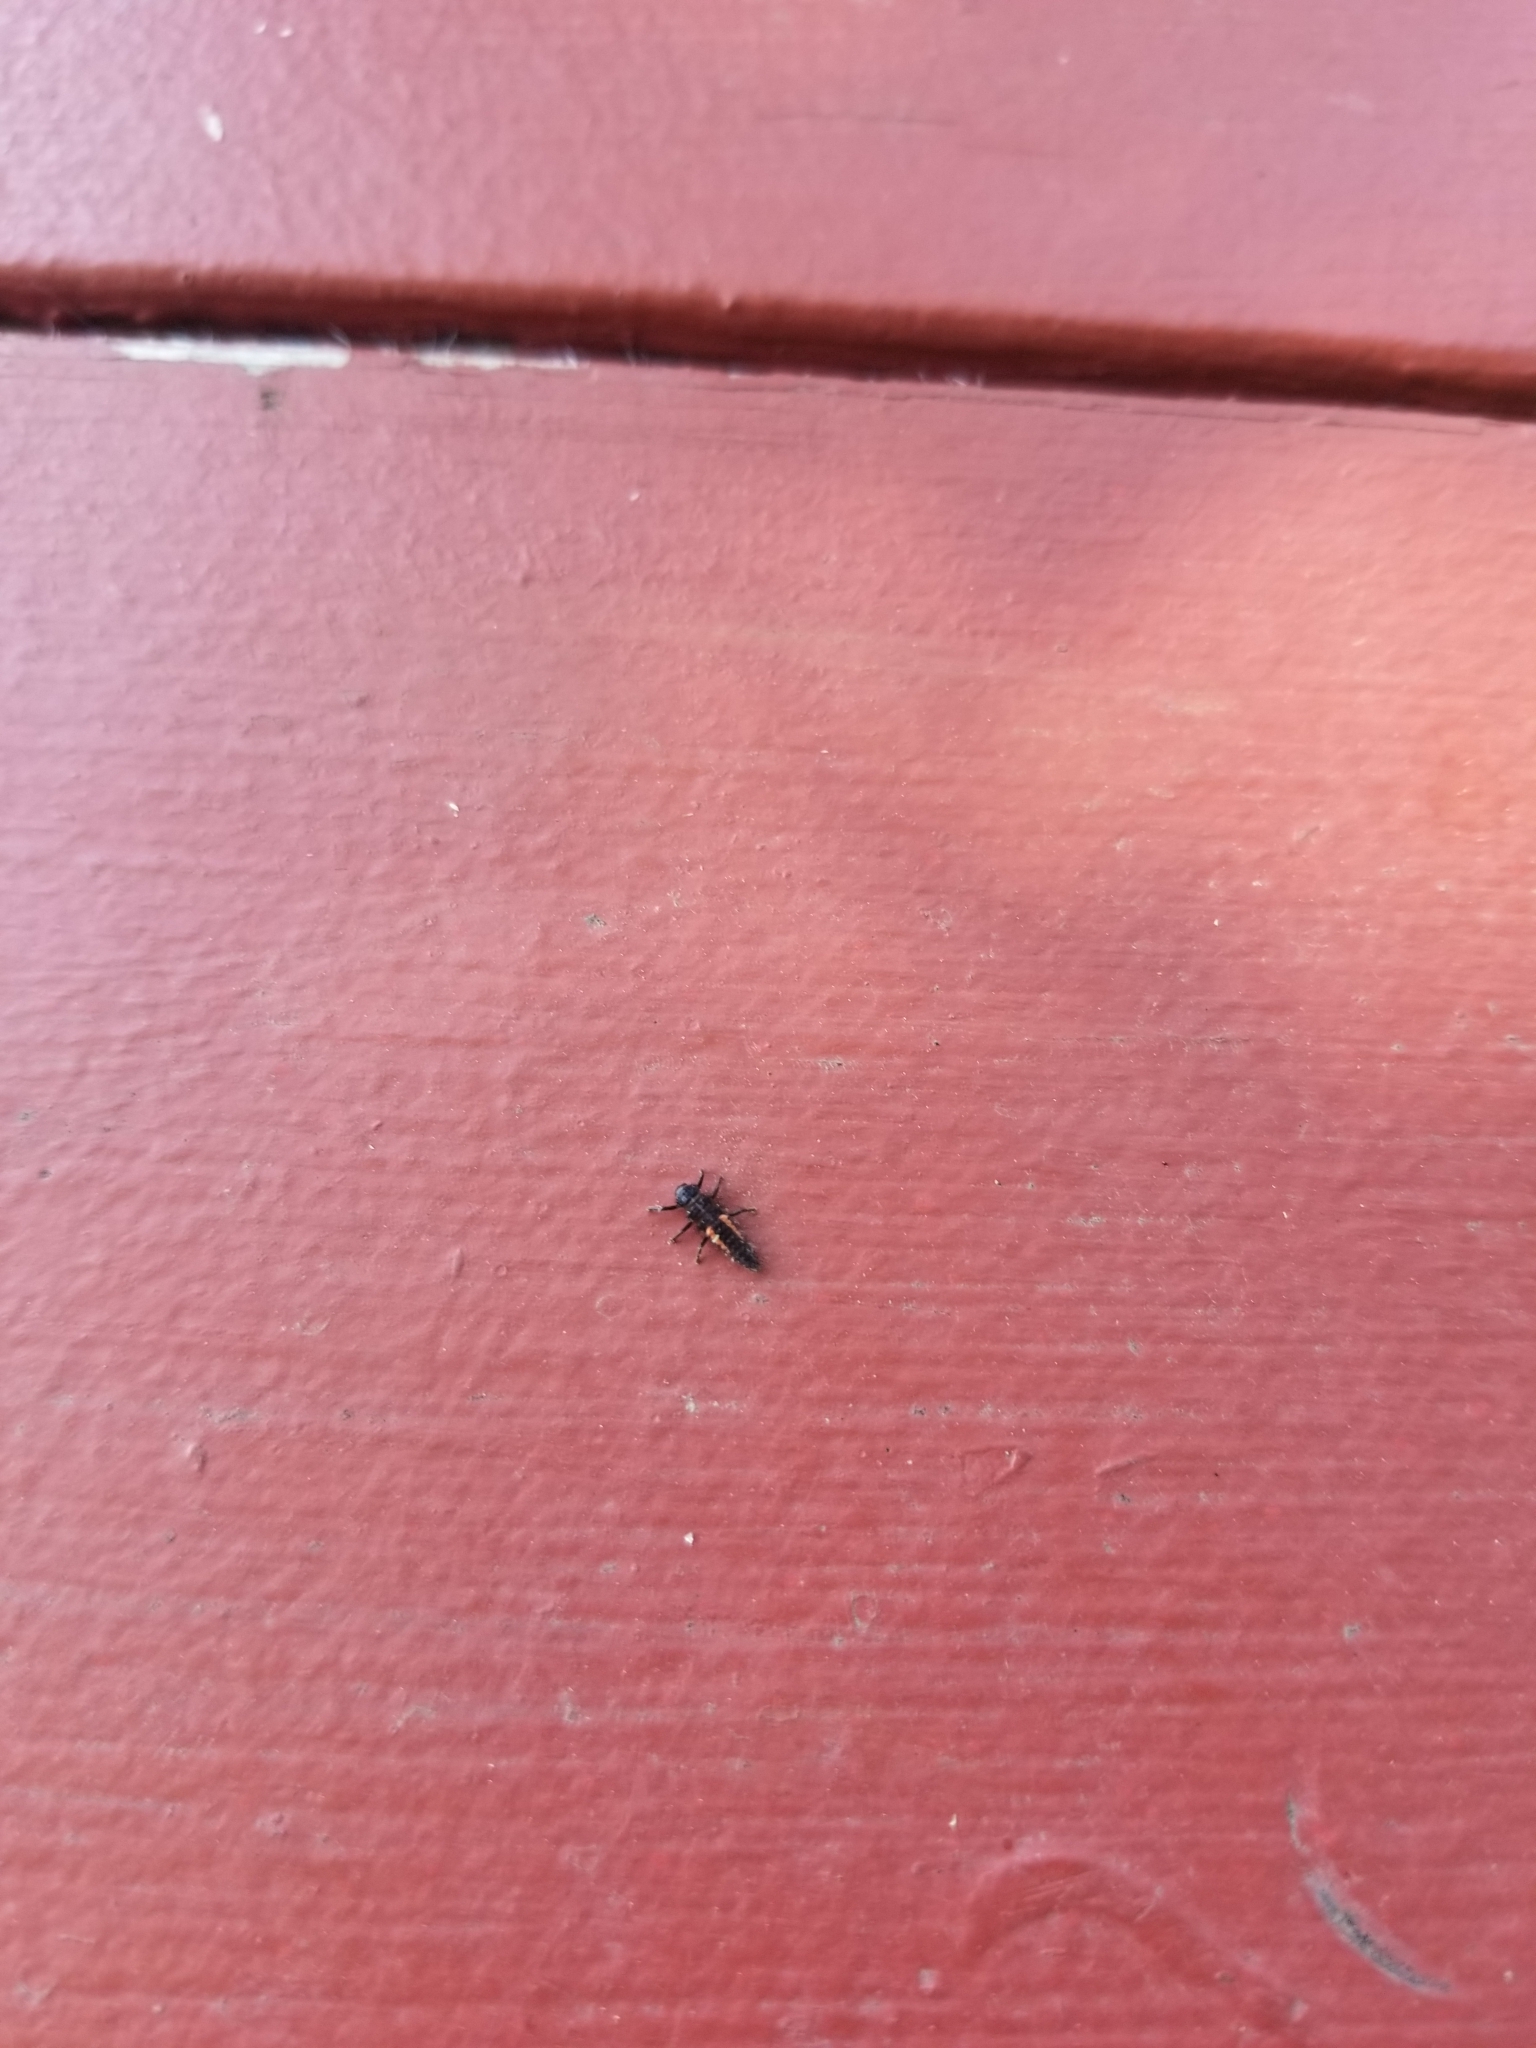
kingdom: Animalia
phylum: Arthropoda
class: Insecta
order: Coleoptera
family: Coccinellidae
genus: Harmonia
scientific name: Harmonia axyridis
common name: Harlequin ladybird
